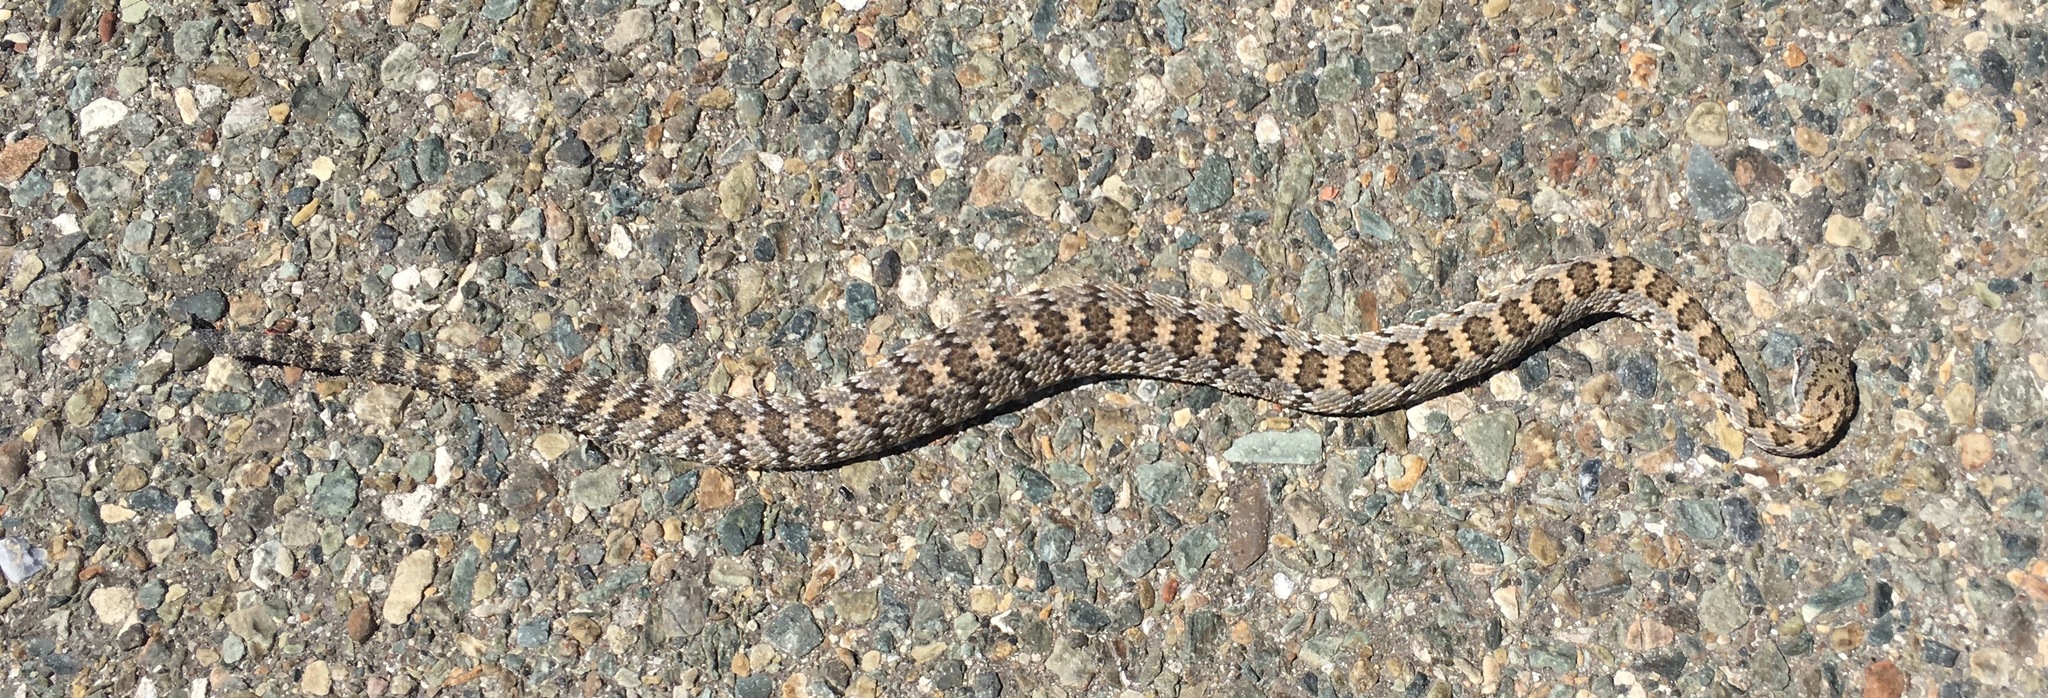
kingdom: Animalia
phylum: Chordata
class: Squamata
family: Viperidae
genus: Crotalus
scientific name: Crotalus stephensi
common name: Panamint rattlesnake
